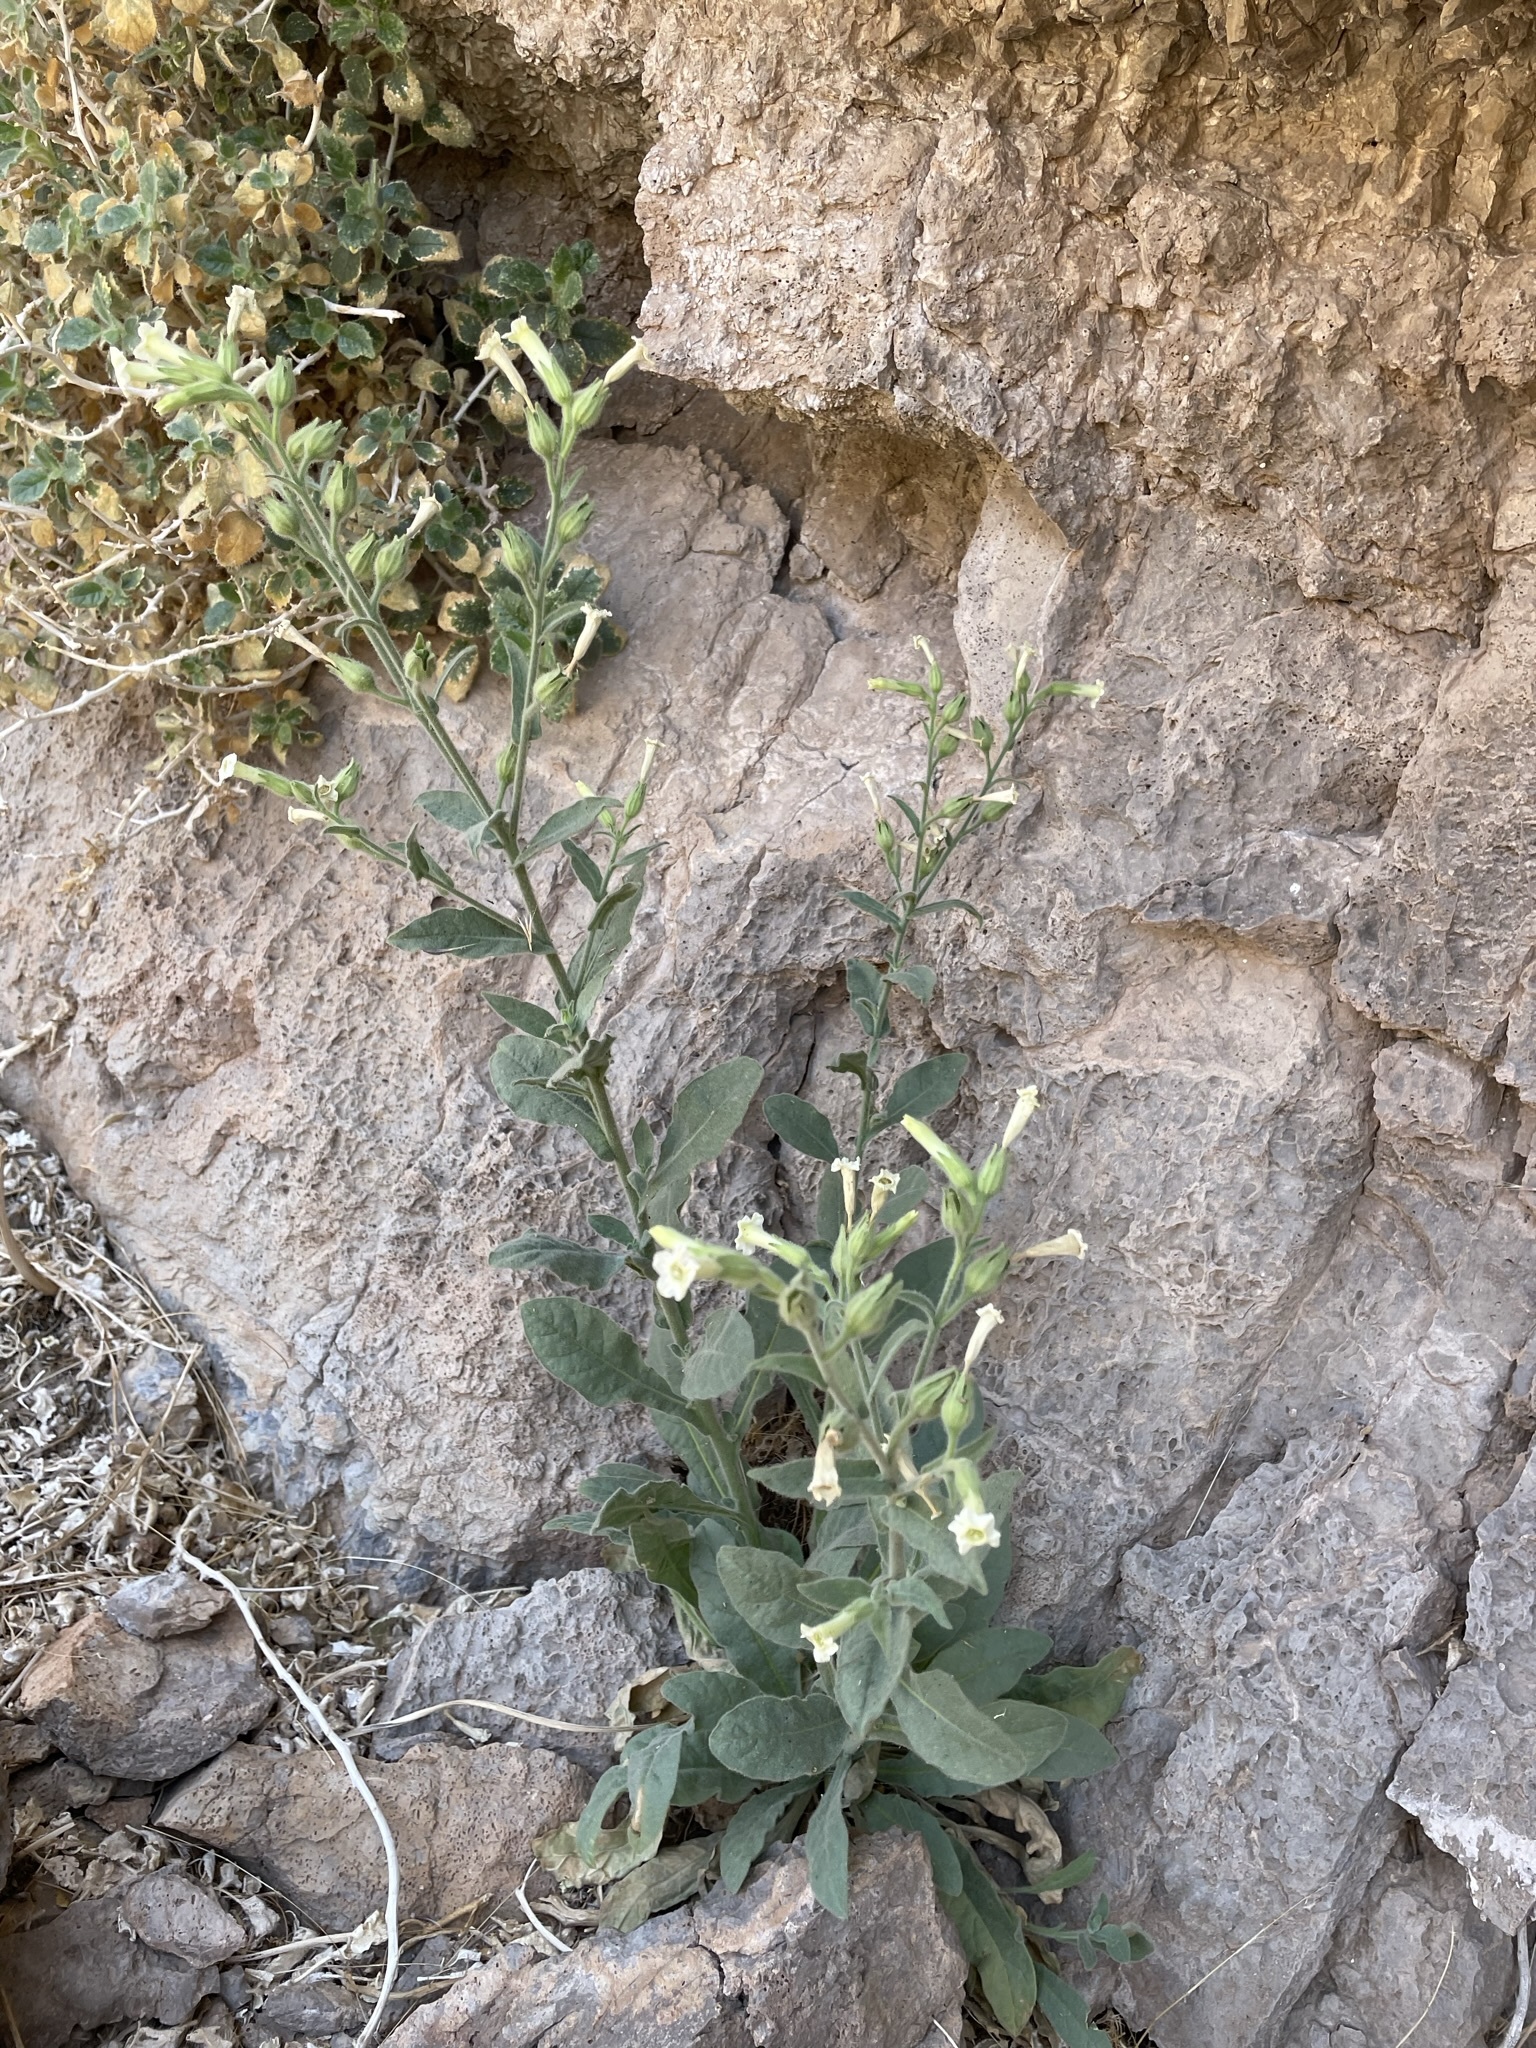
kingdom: Plantae
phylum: Tracheophyta
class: Magnoliopsida
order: Solanales
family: Solanaceae
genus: Nicotiana
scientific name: Nicotiana obtusifolia
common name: Desert tobacco
